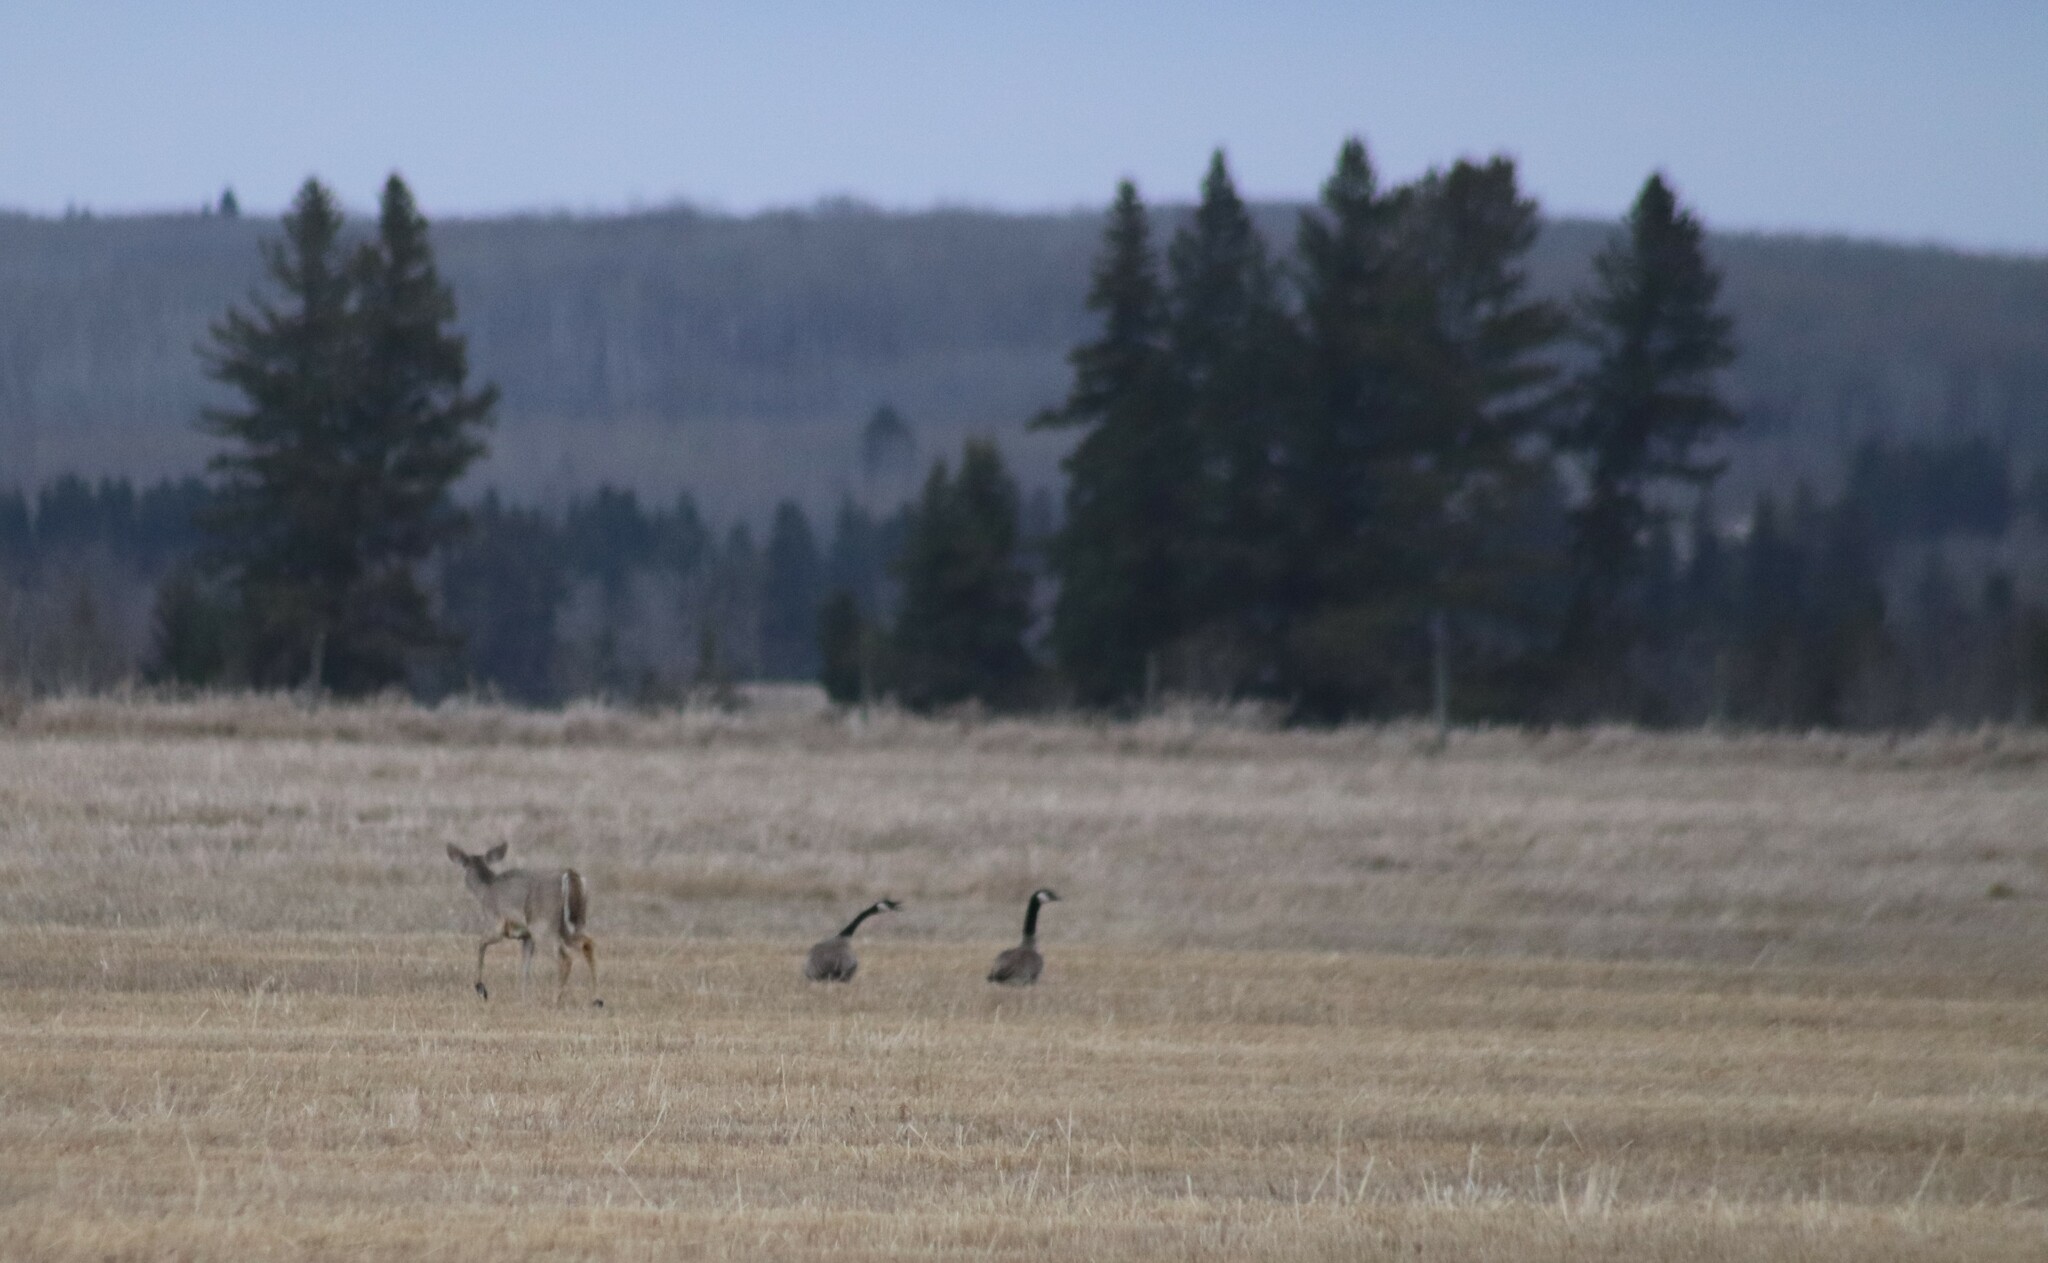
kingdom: Animalia
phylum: Chordata
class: Aves
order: Anseriformes
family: Anatidae
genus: Branta
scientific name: Branta canadensis
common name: Canada goose
